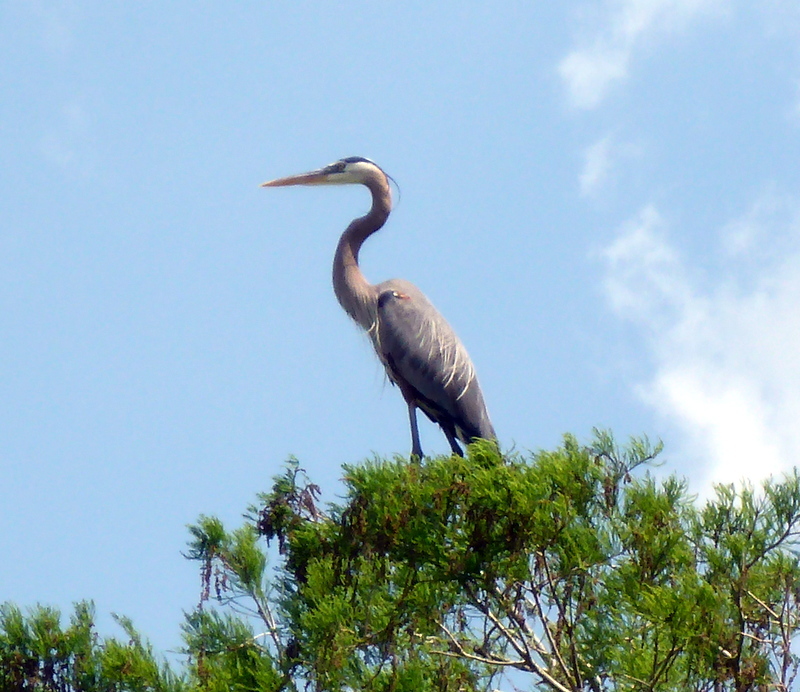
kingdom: Animalia
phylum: Chordata
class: Aves
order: Pelecaniformes
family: Ardeidae
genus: Ardea
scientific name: Ardea herodias
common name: Great blue heron
